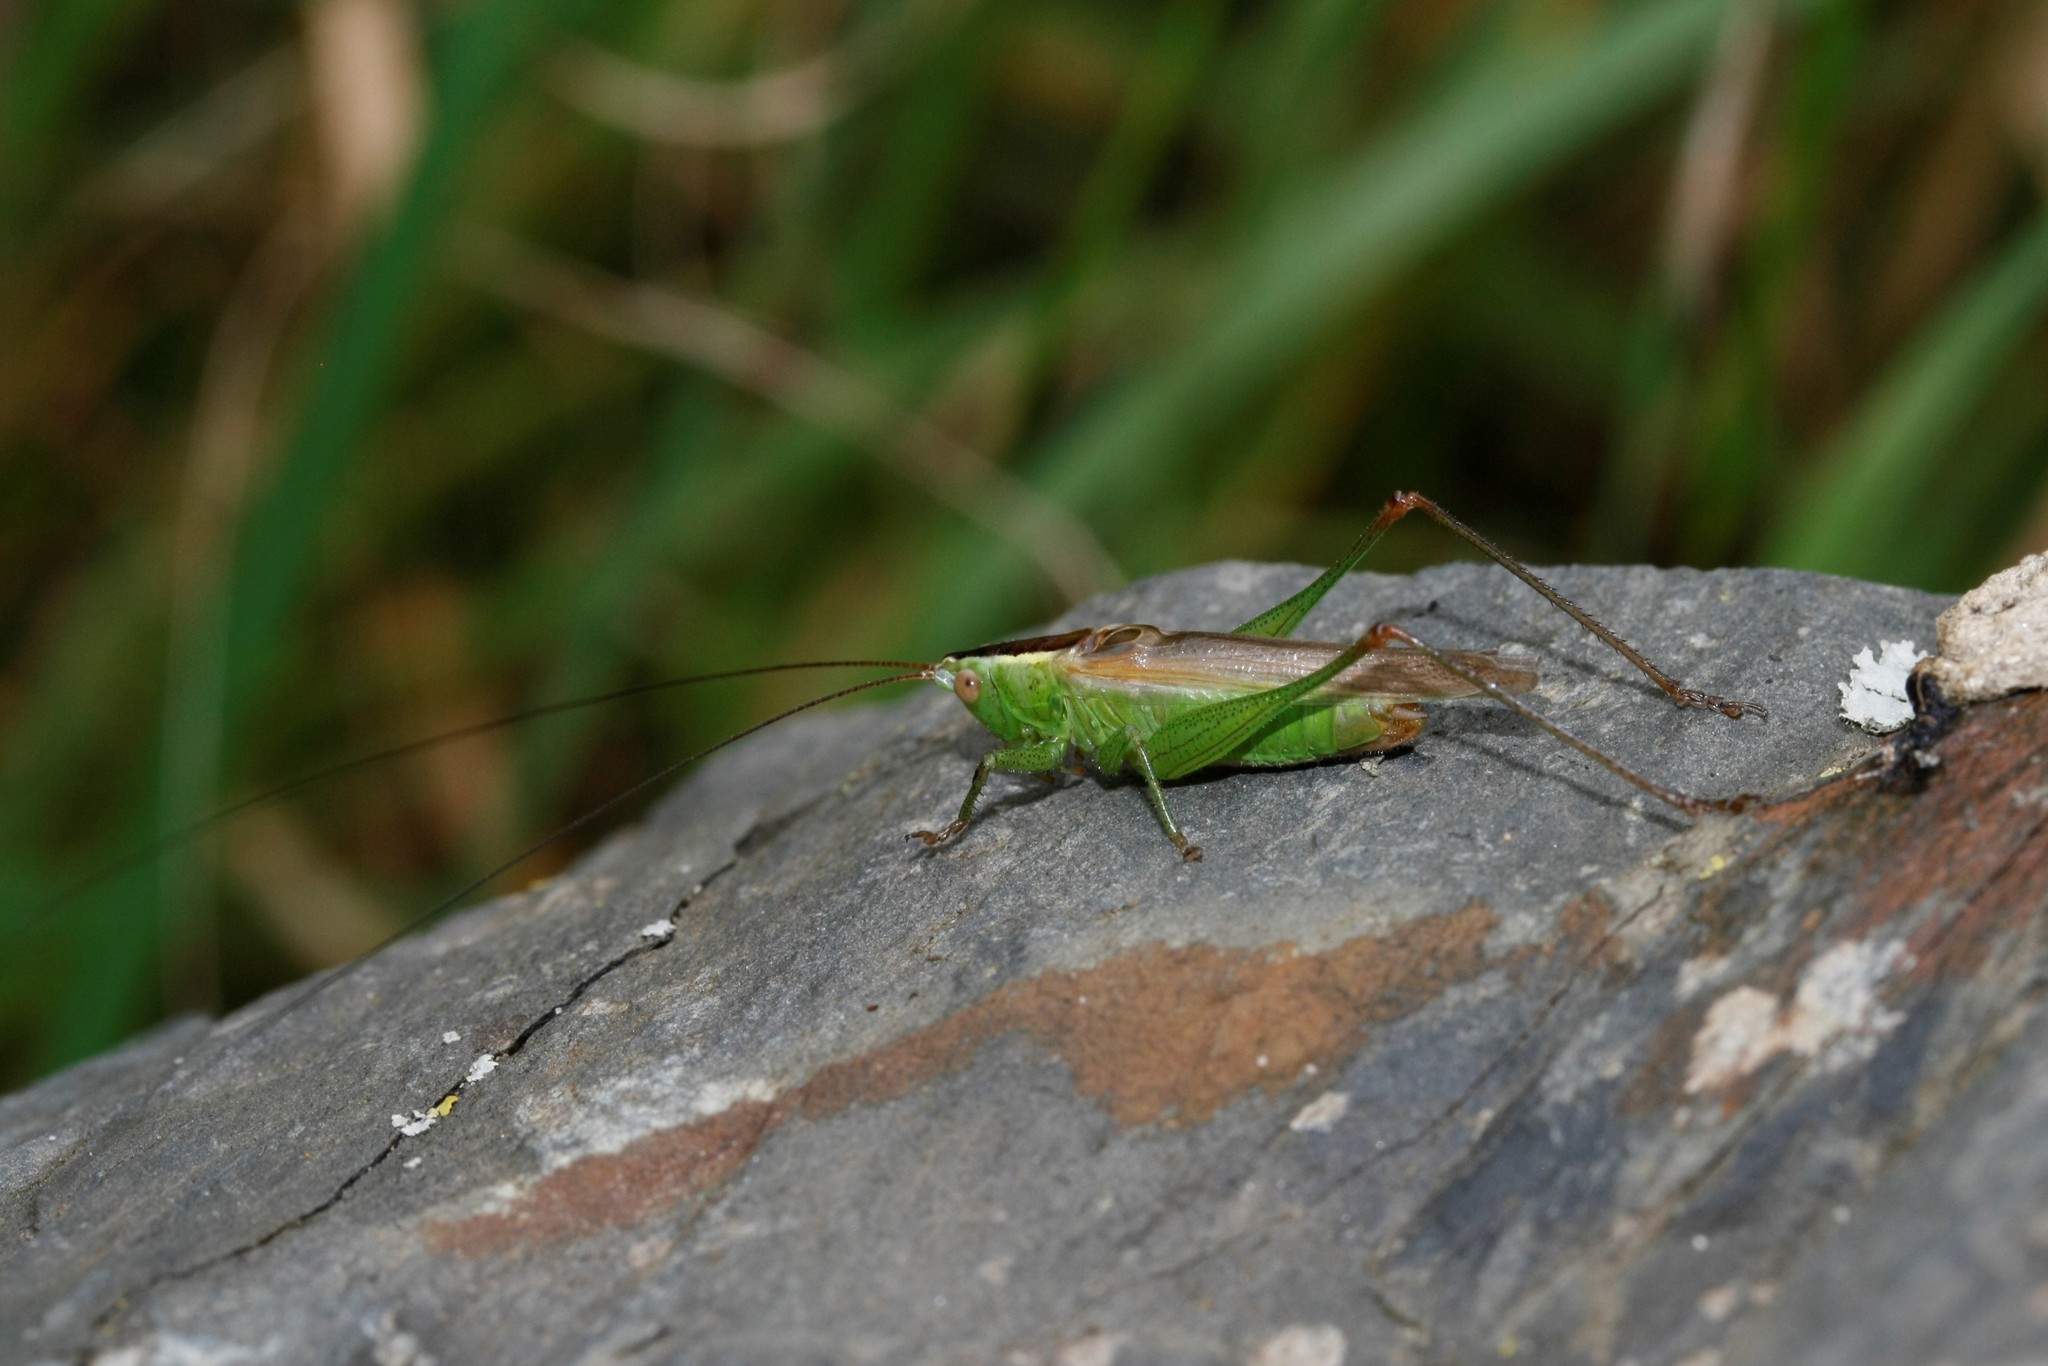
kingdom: Animalia
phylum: Arthropoda
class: Insecta
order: Orthoptera
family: Tettigoniidae
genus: Conocephalus
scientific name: Conocephalus fuscus
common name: Long-winged conehead
